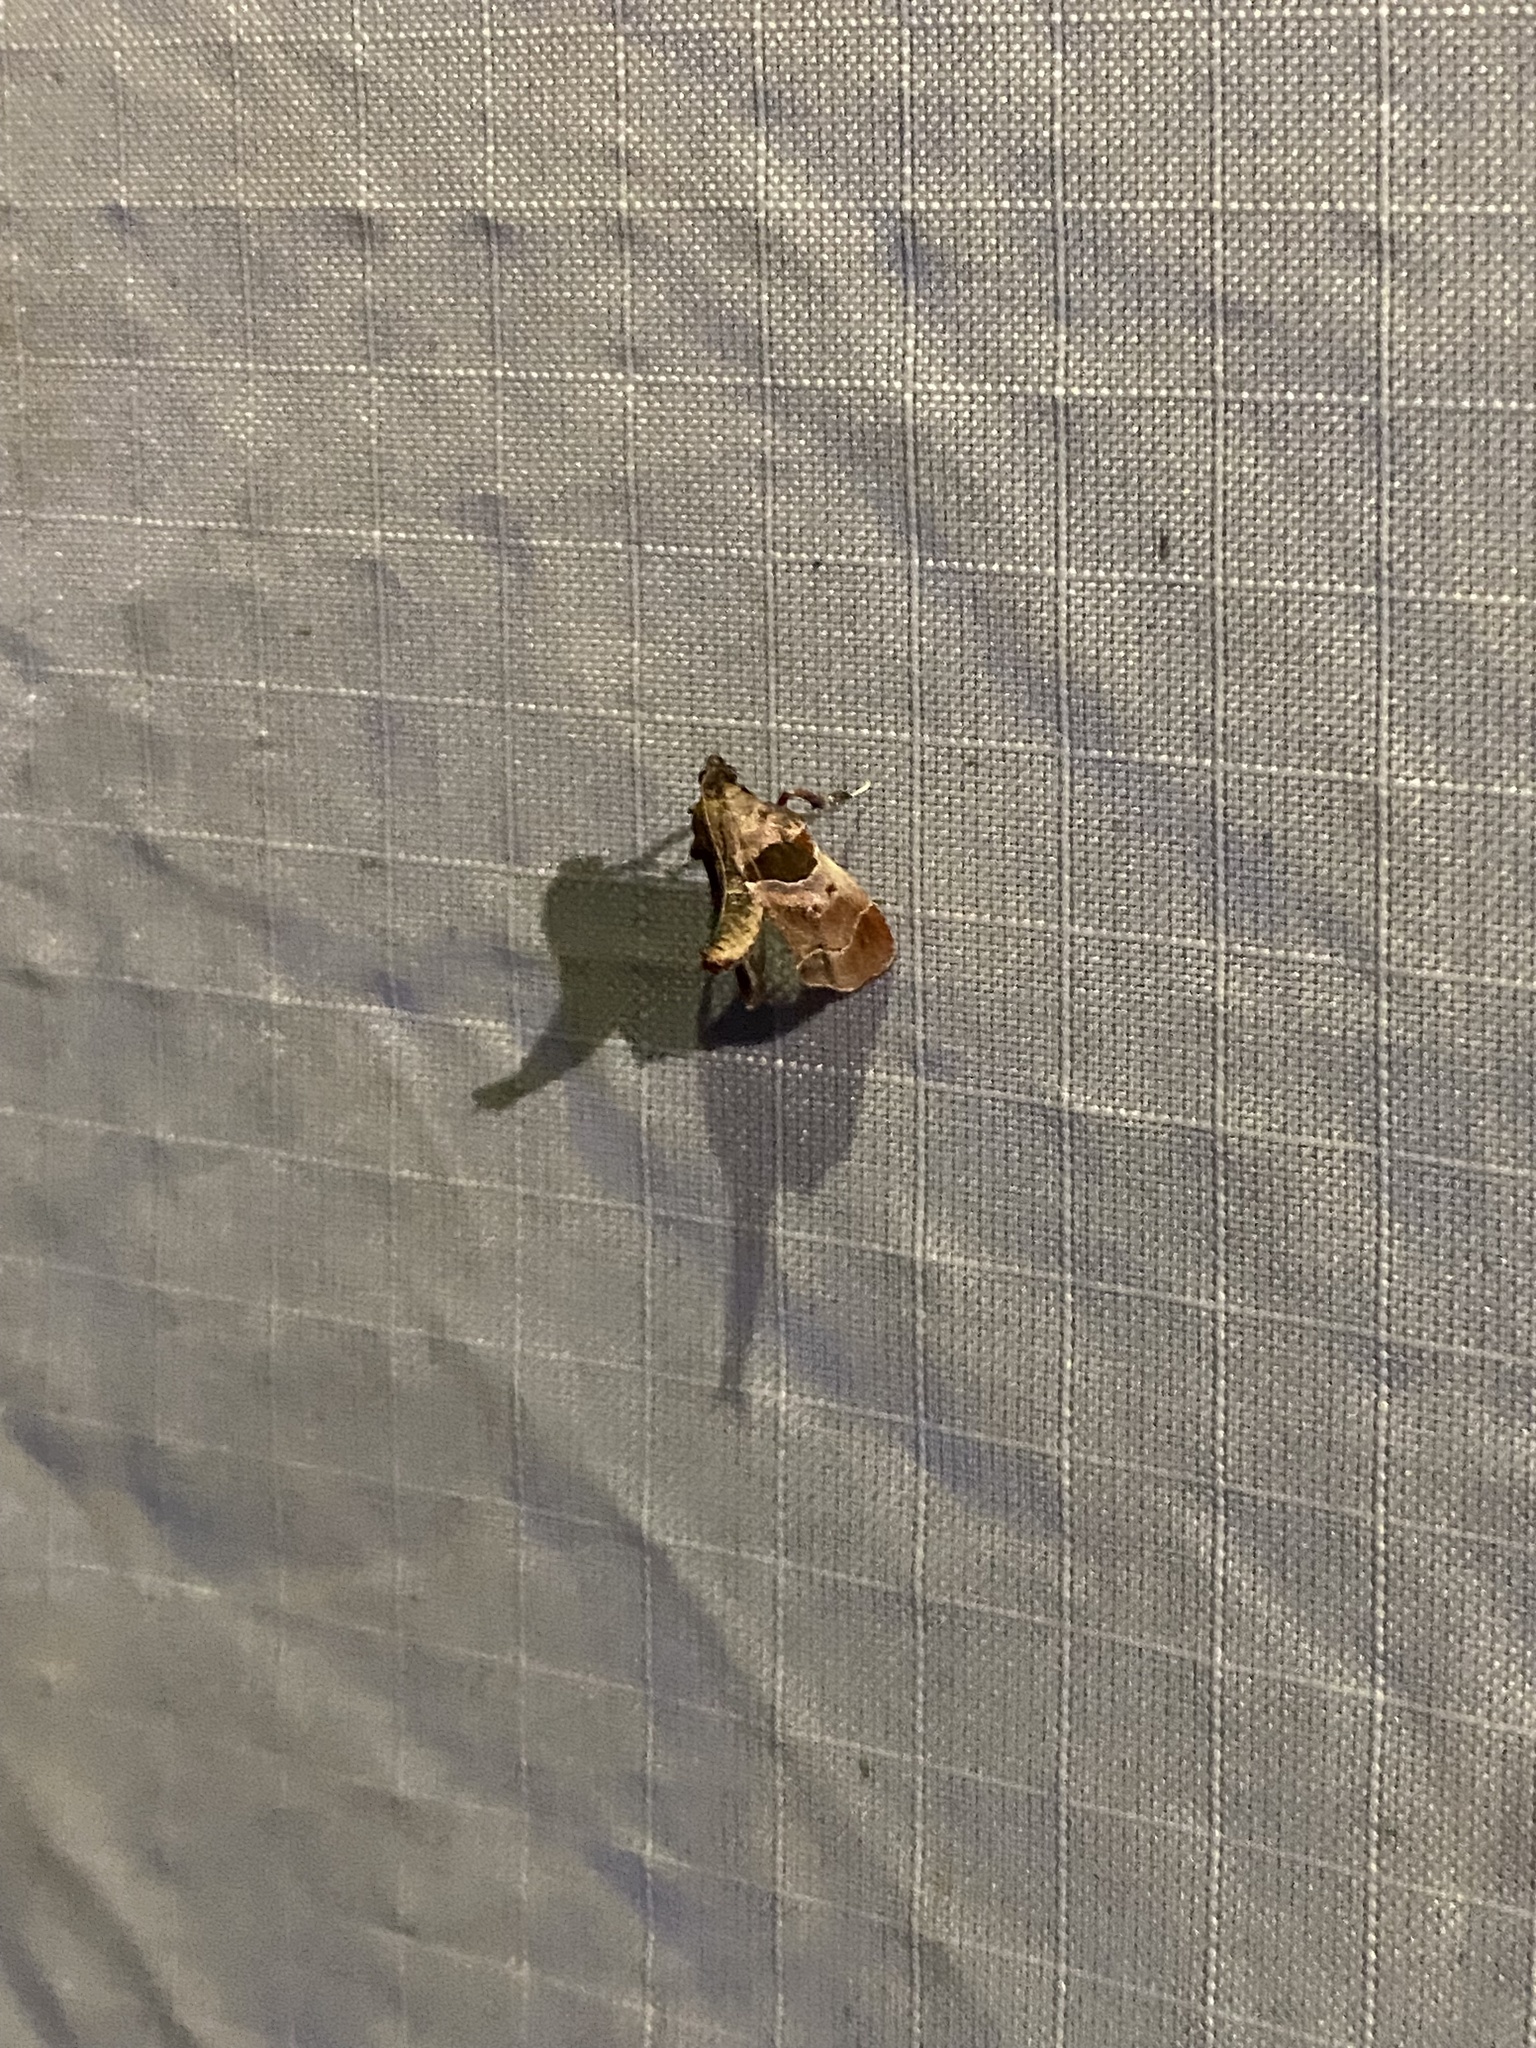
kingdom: Animalia
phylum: Arthropoda
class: Insecta
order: Lepidoptera
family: Pyralidae
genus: Tosale
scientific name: Tosale oviplagalis
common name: Dimorphic tosale moth
